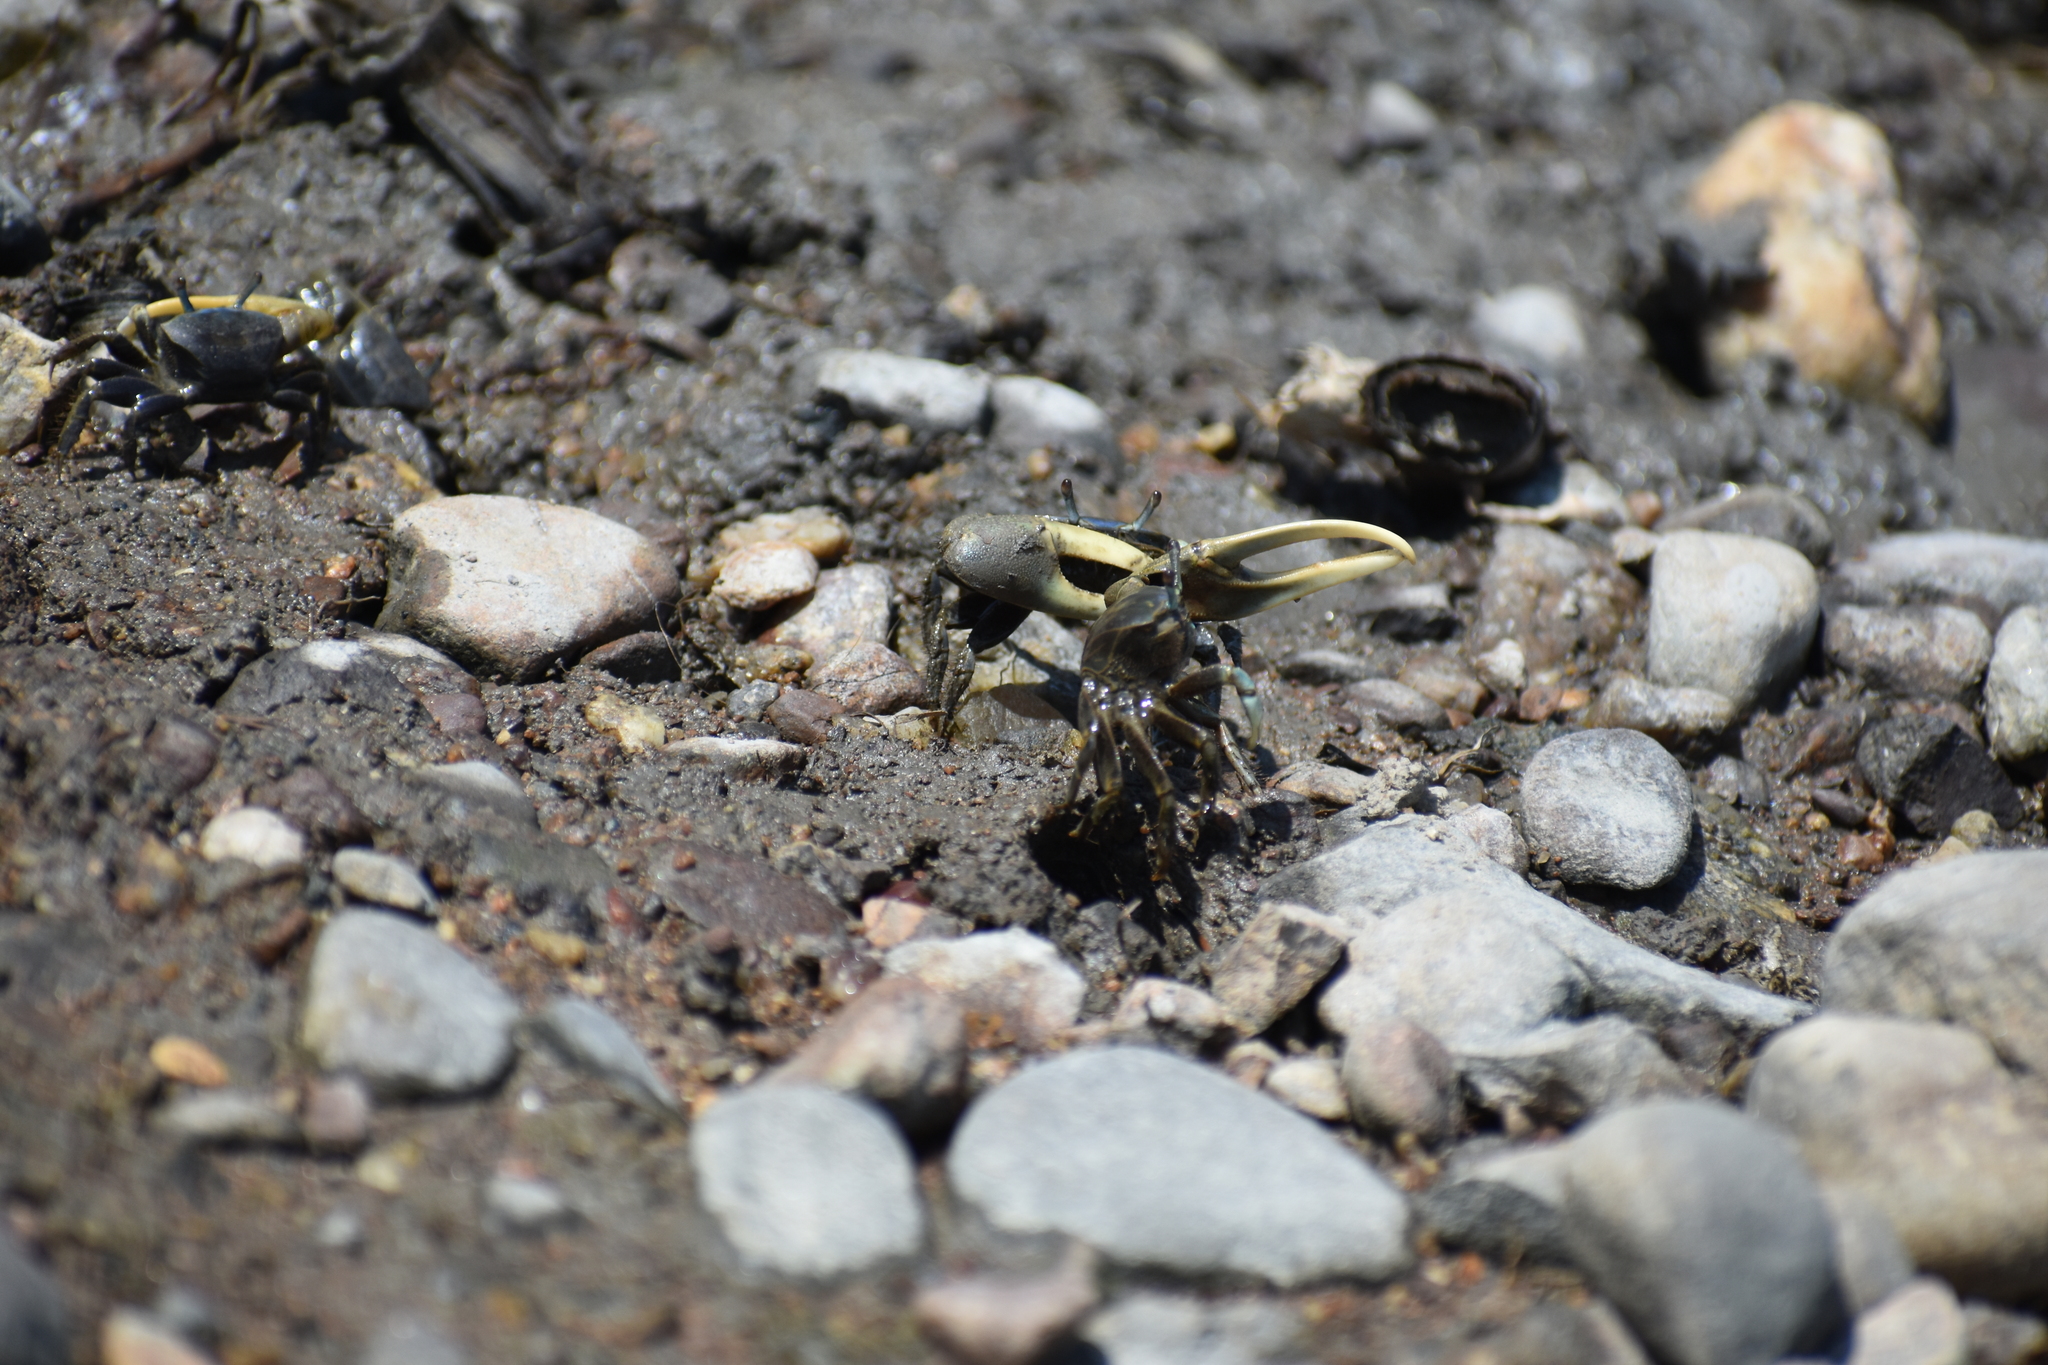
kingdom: Animalia
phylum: Arthropoda
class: Malacostraca
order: Decapoda
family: Ocypodidae
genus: Minuca
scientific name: Minuca pugnax
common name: Mud fiddler crab
